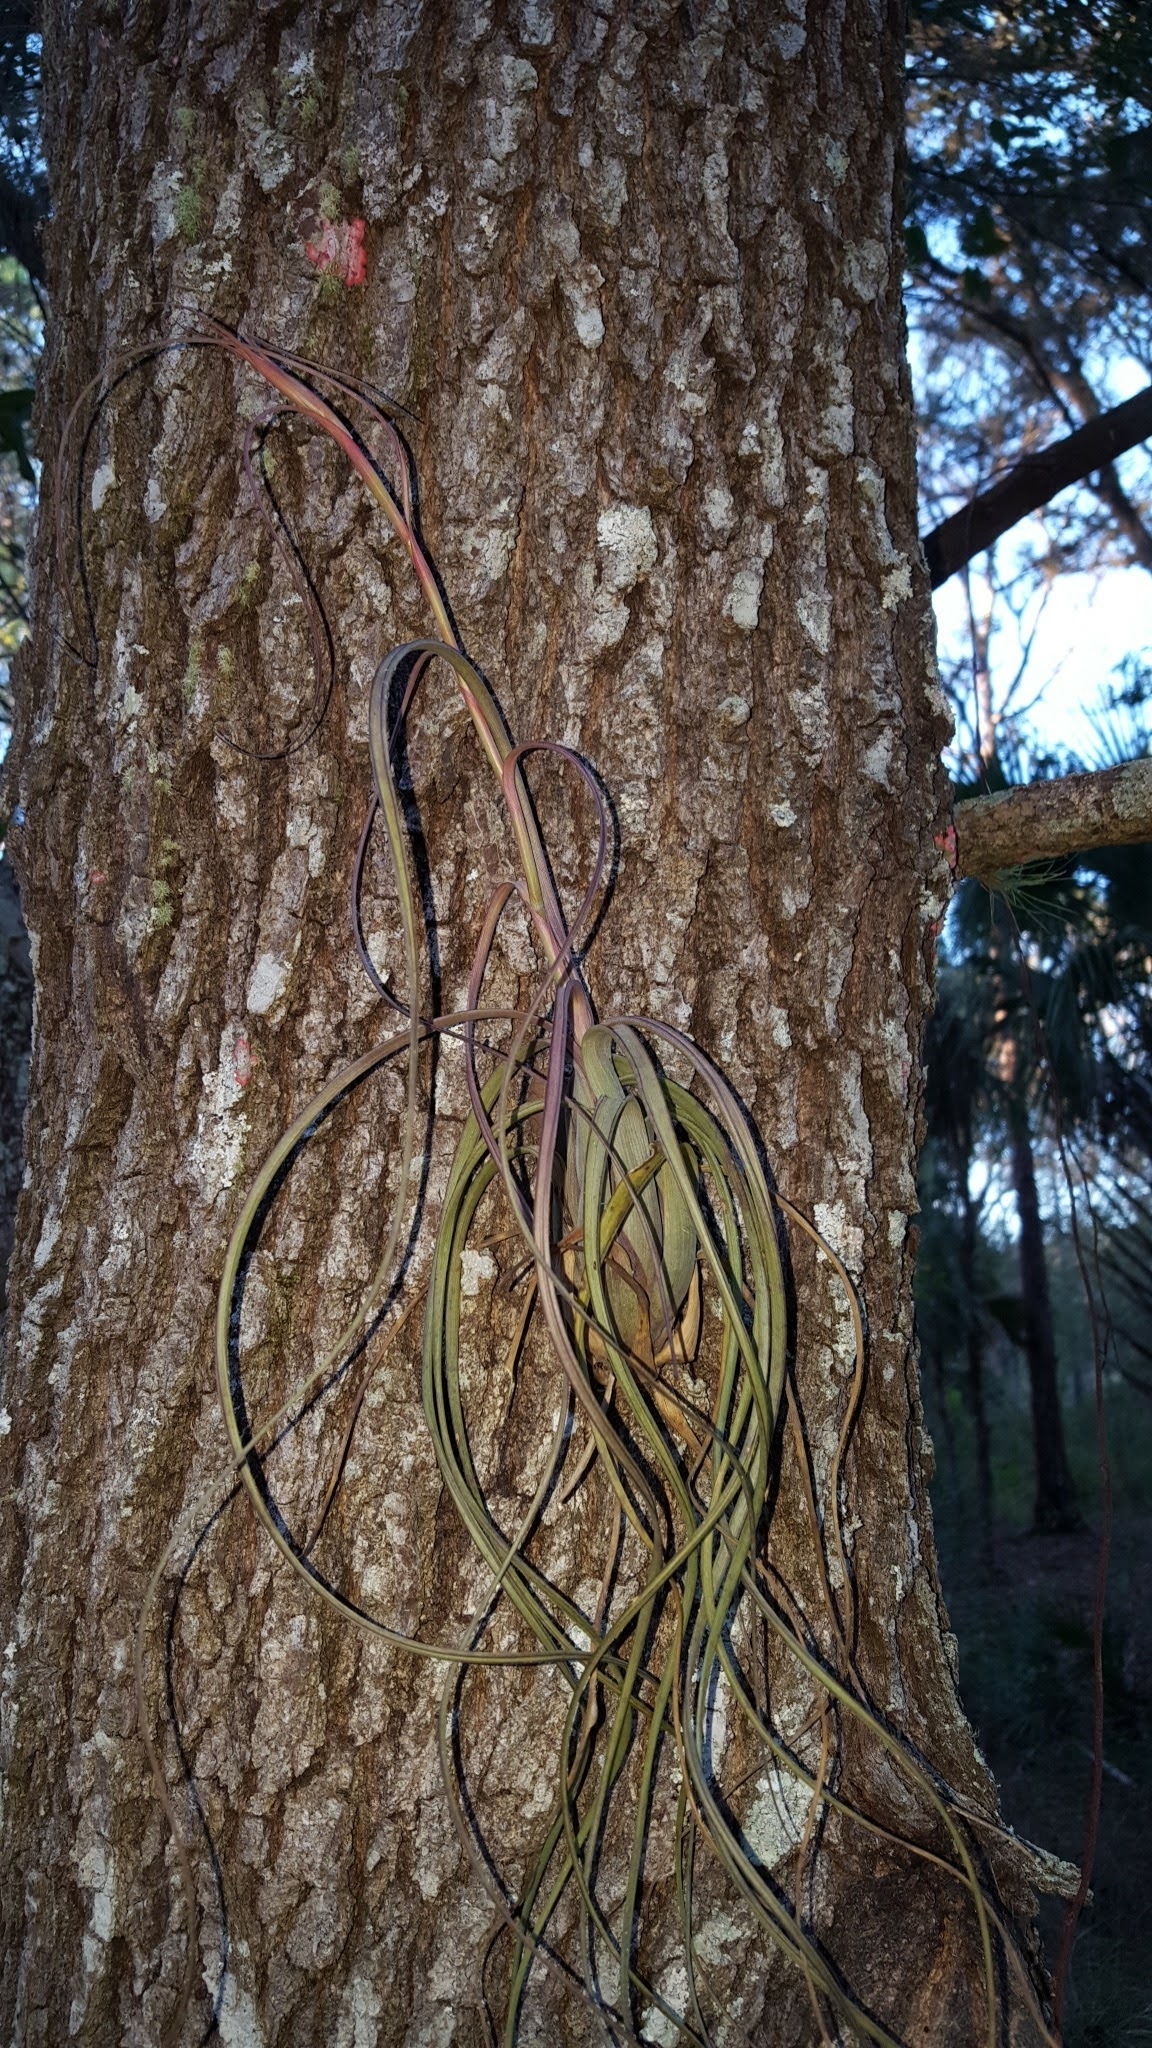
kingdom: Plantae
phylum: Tracheophyta
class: Liliopsida
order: Poales
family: Bromeliaceae
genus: Tillandsia
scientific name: Tillandsia balbisiana
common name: Northern needleleaf
